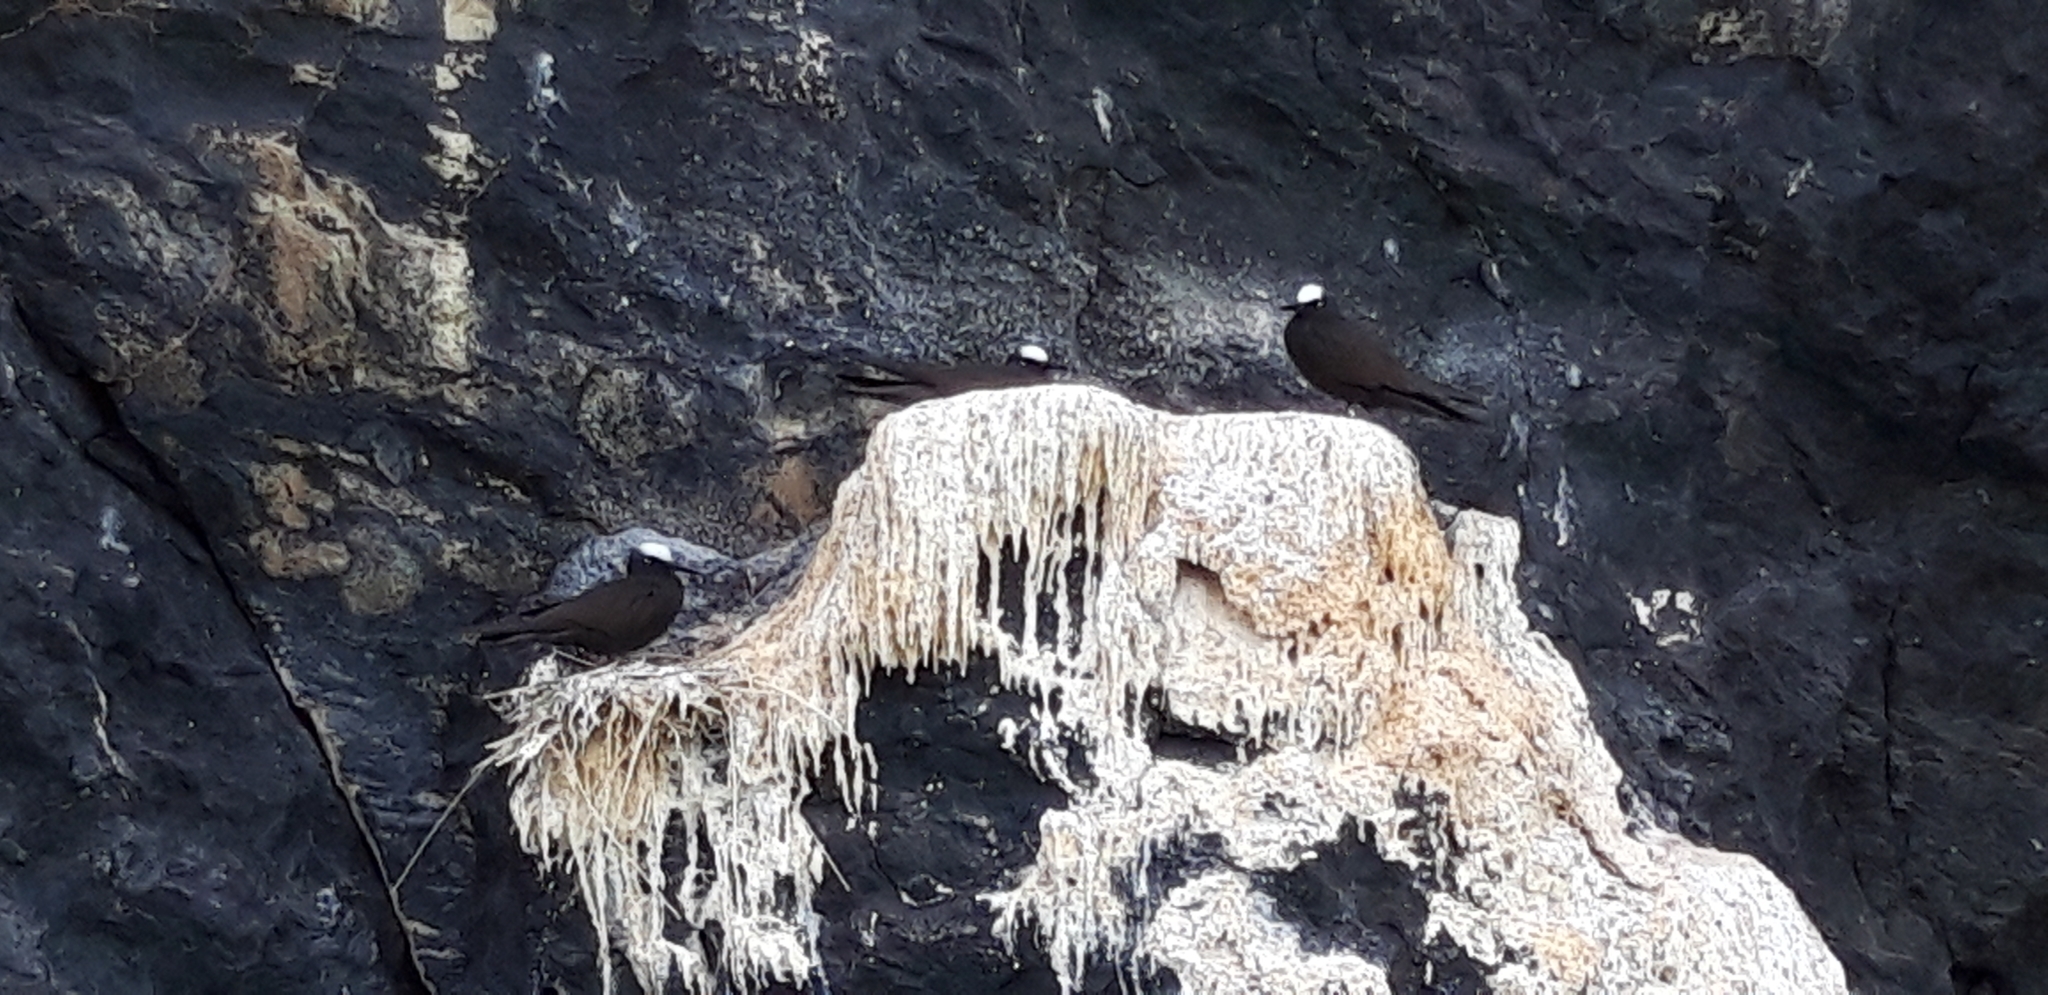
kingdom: Animalia
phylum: Chordata
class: Aves
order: Charadriiformes
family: Laridae
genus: Anous
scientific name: Anous minutus
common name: Black noddy
